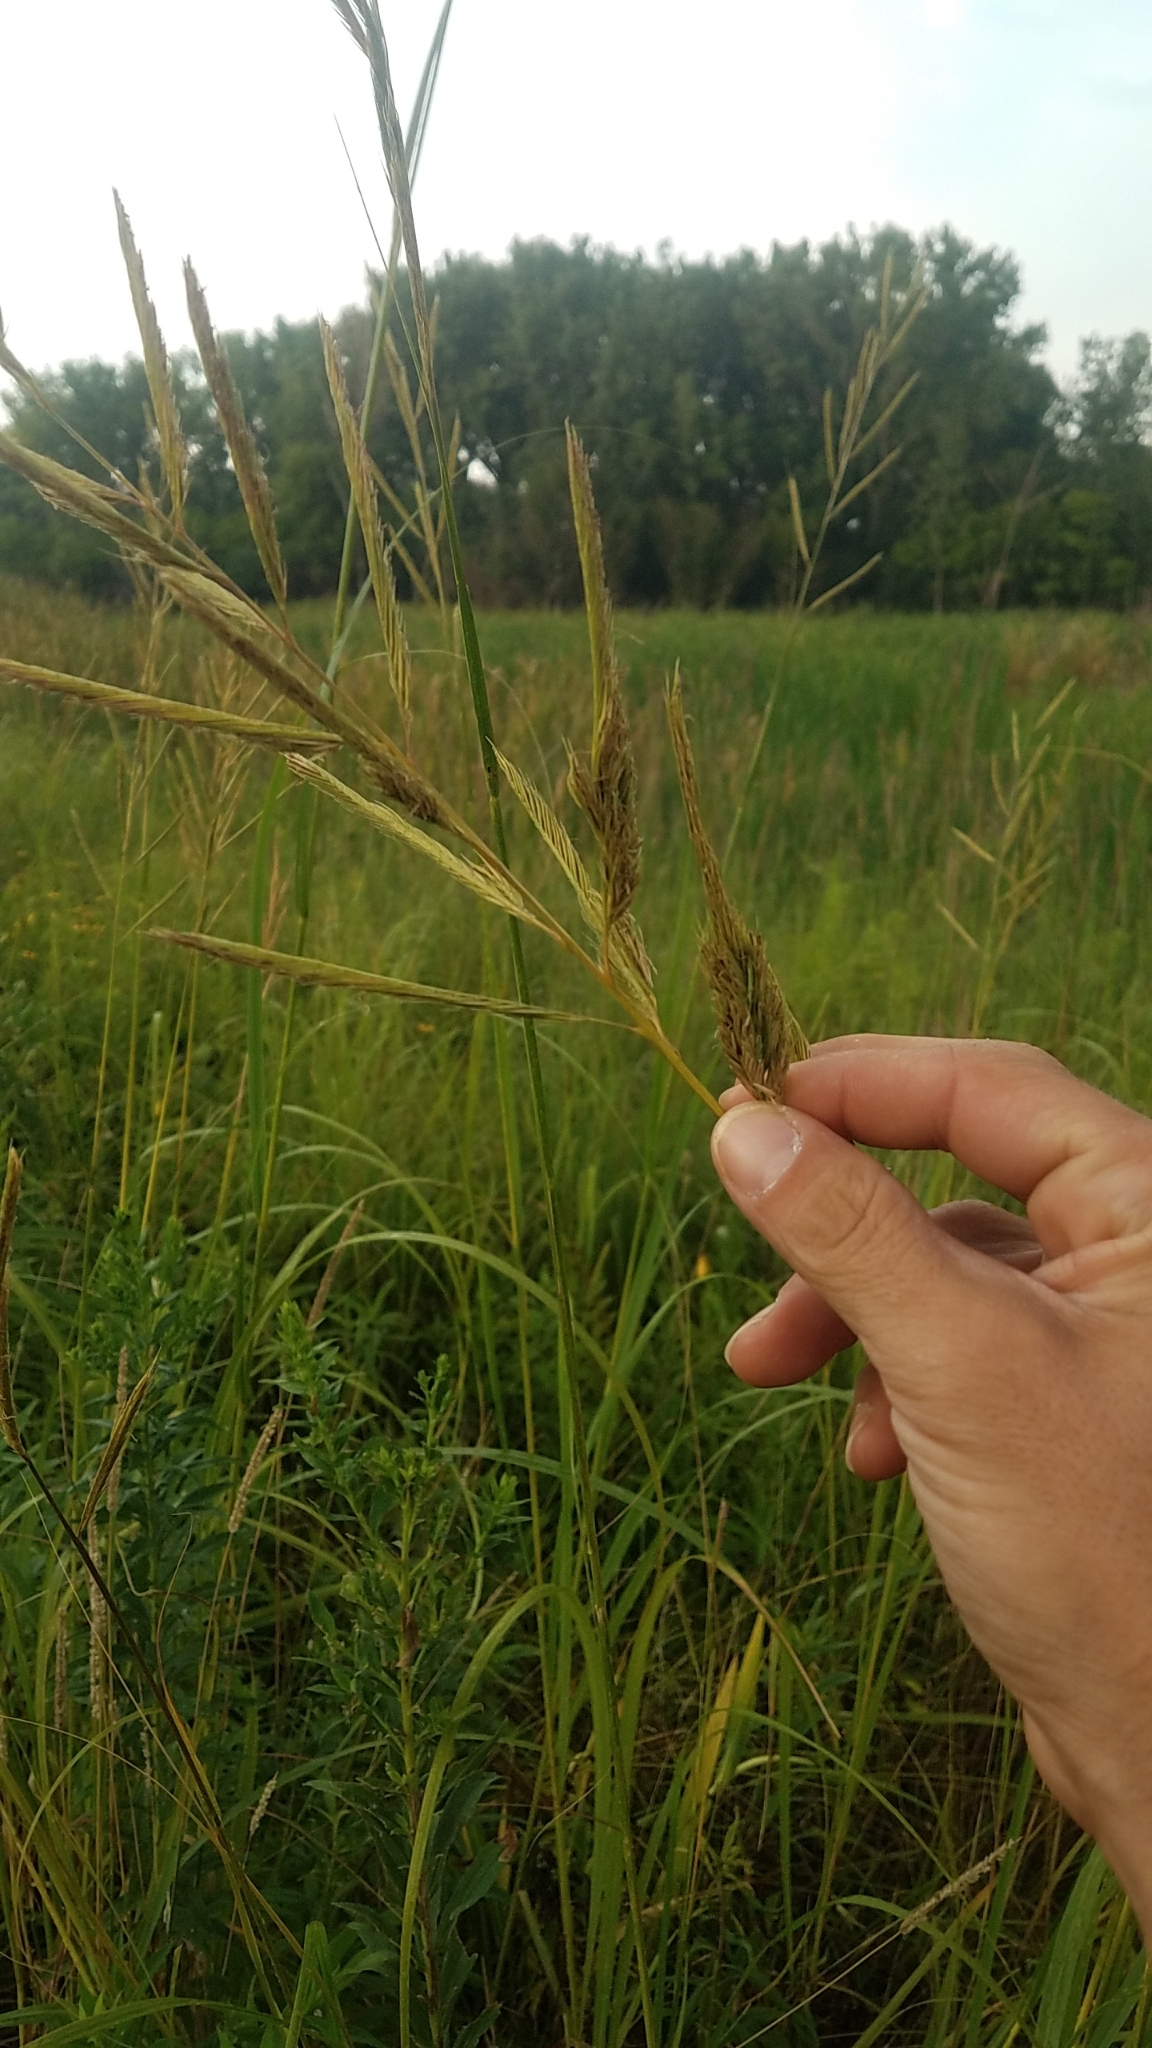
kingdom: Plantae
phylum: Tracheophyta
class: Liliopsida
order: Poales
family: Poaceae
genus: Sporobolus
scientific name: Sporobolus michauxianus
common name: Freshwater cordgrass
